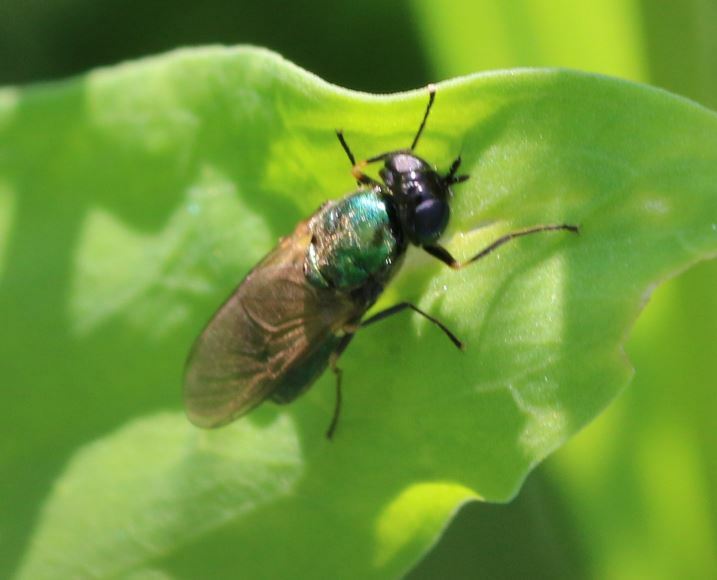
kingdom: Animalia
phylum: Arthropoda
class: Insecta
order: Diptera
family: Stratiomyidae
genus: Chloromyia
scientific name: Chloromyia formosa
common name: Soldier fly
